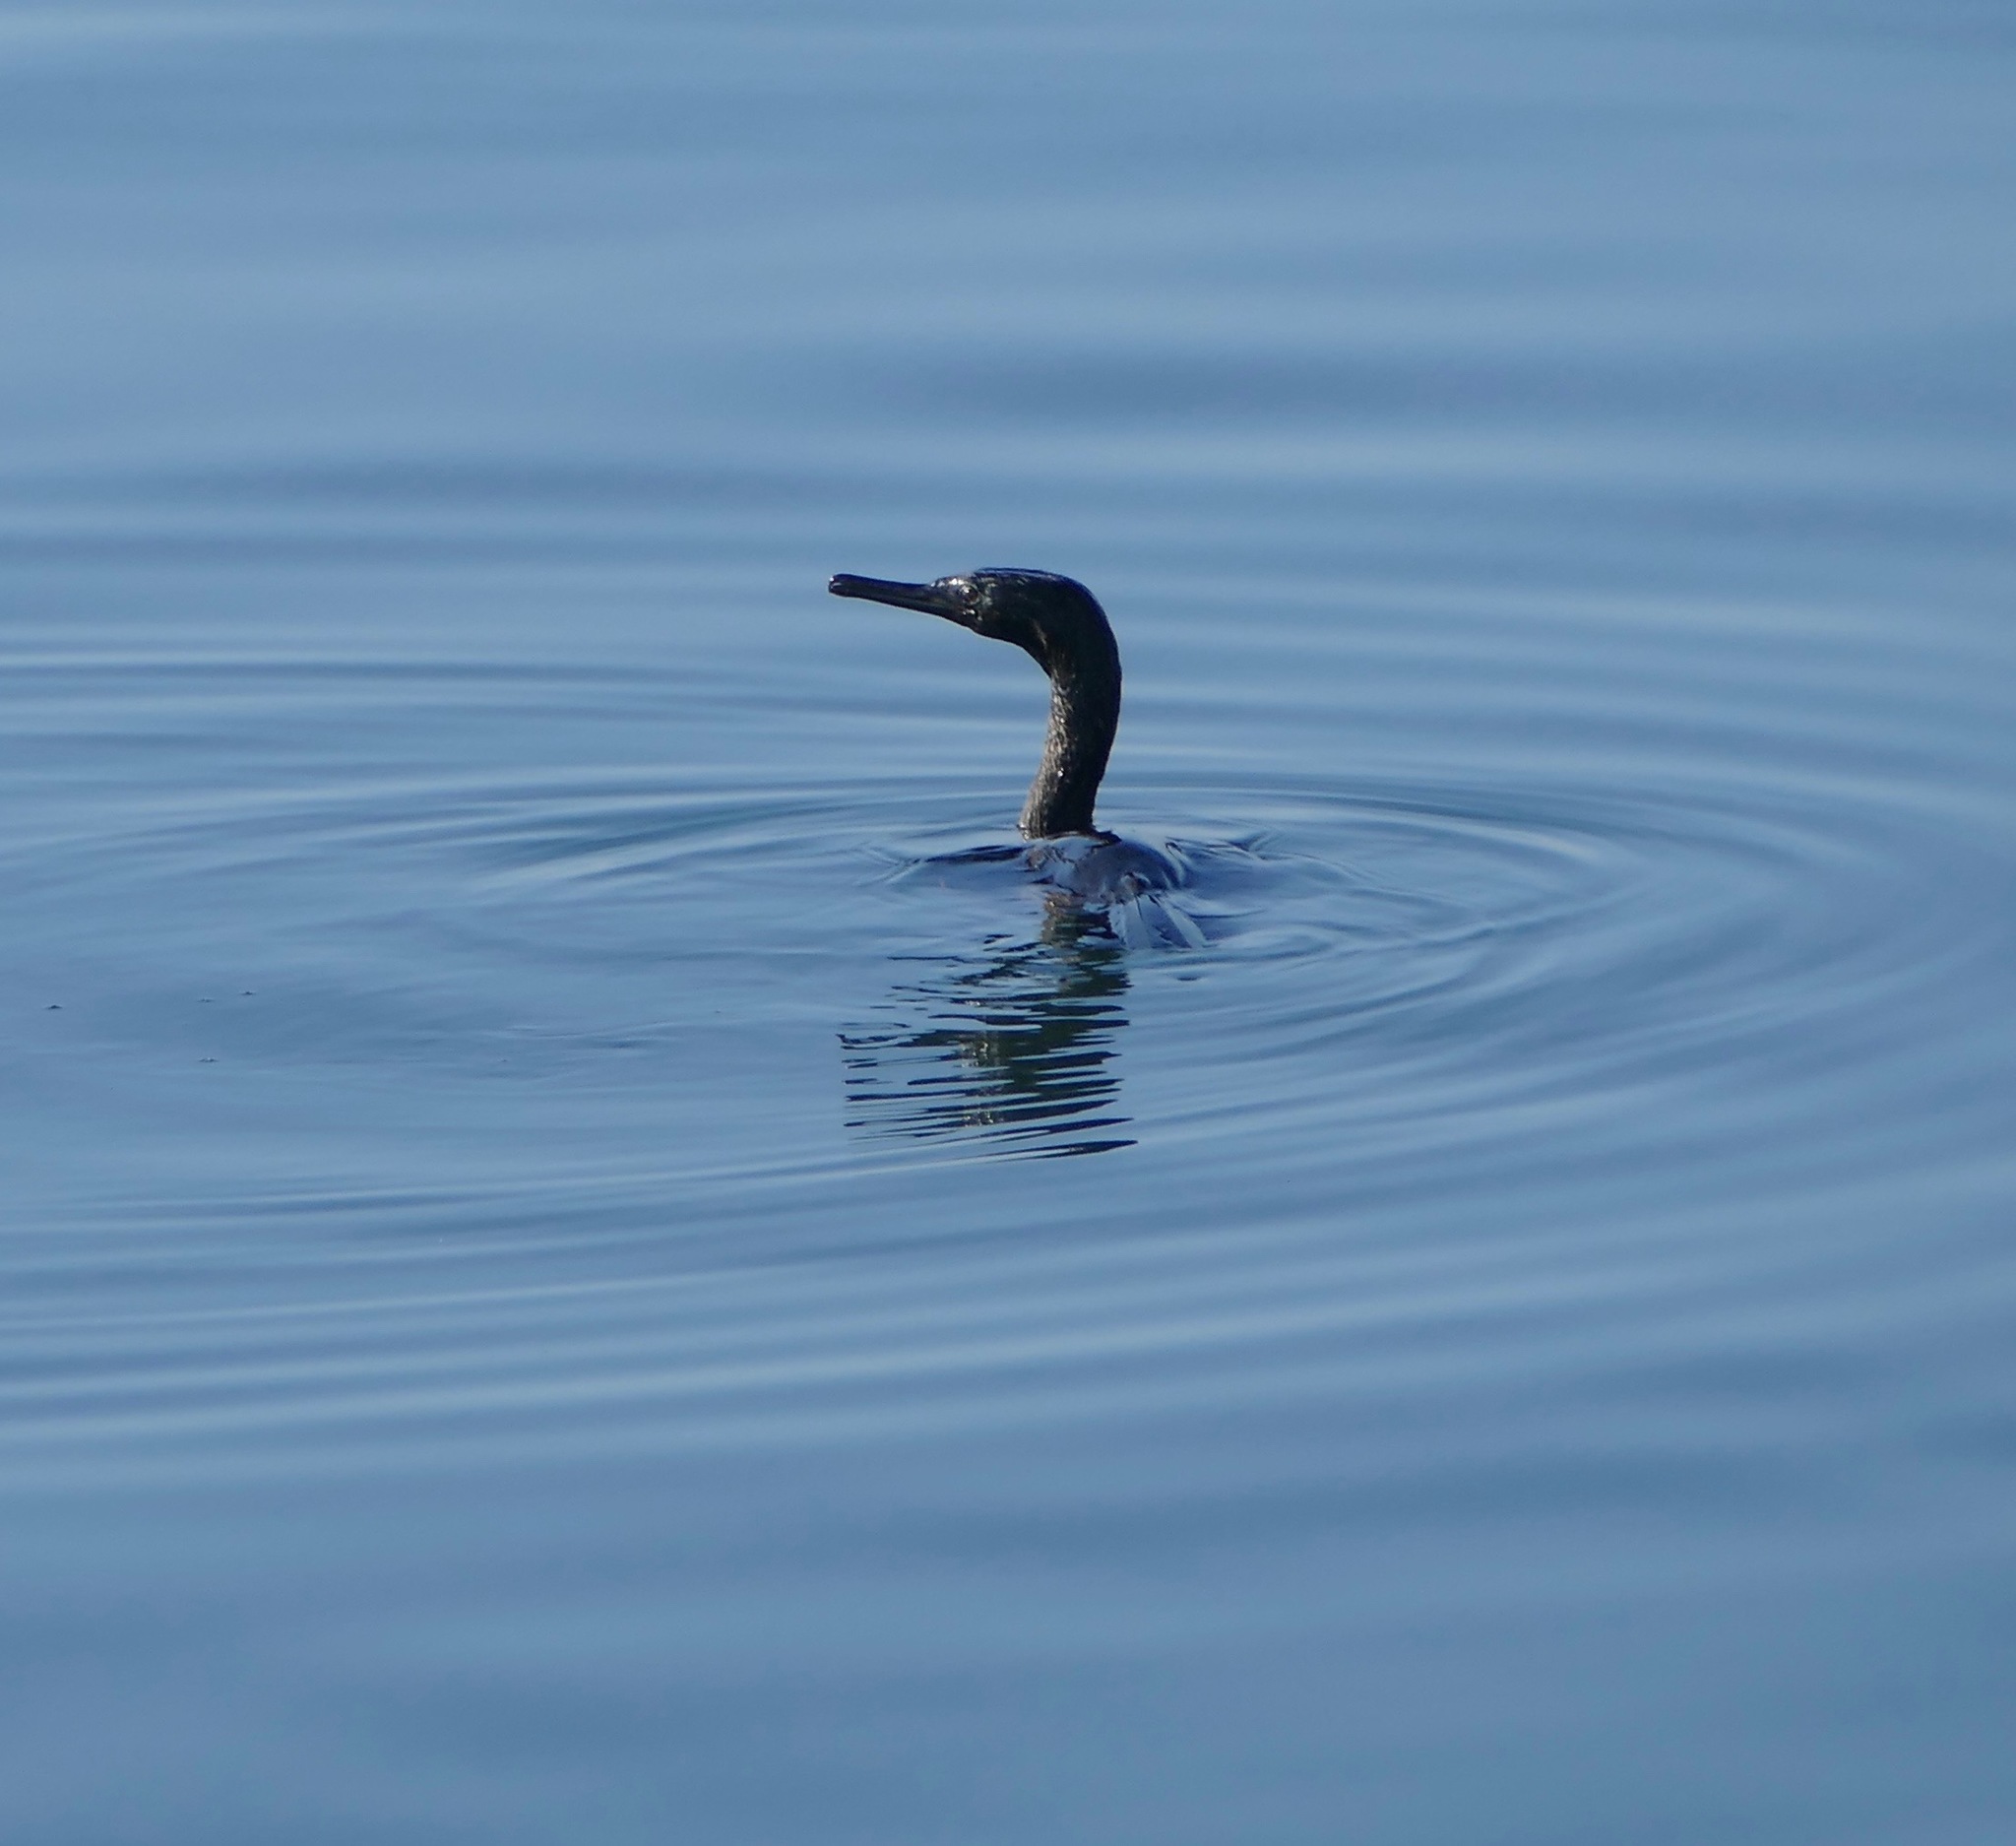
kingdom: Animalia
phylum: Chordata
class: Aves
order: Suliformes
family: Phalacrocoracidae
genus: Phalacrocorax
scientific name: Phalacrocorax pelagicus
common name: Pelagic cormorant
